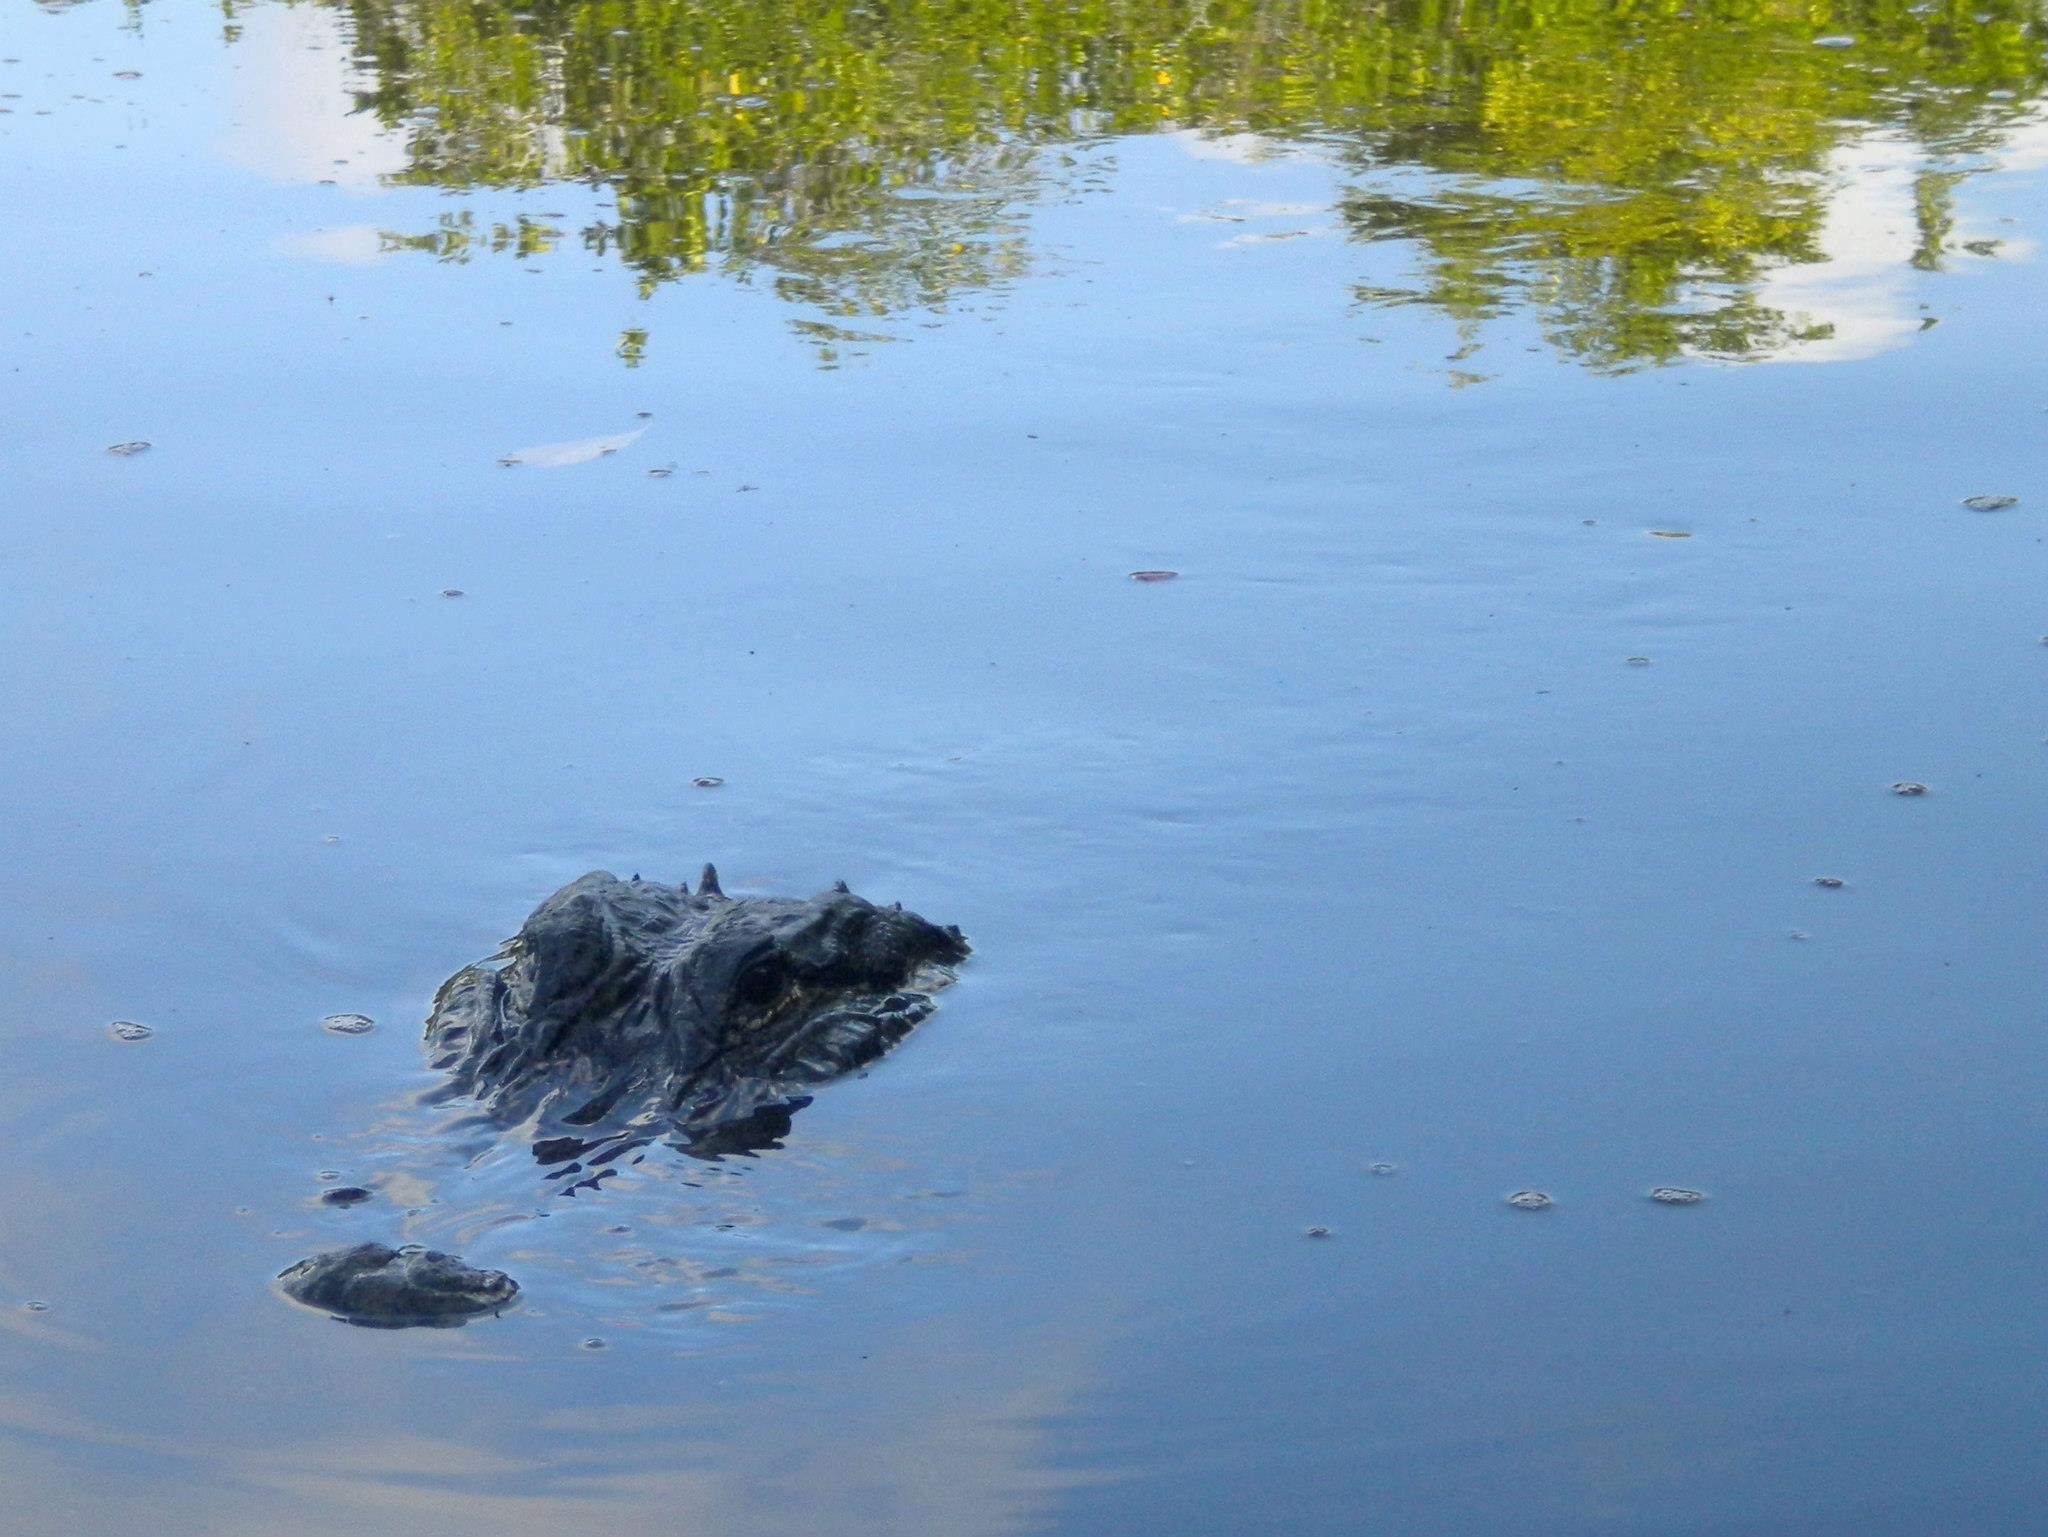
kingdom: Animalia
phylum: Chordata
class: Crocodylia
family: Alligatoridae
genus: Alligator
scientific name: Alligator mississippiensis
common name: American alligator
